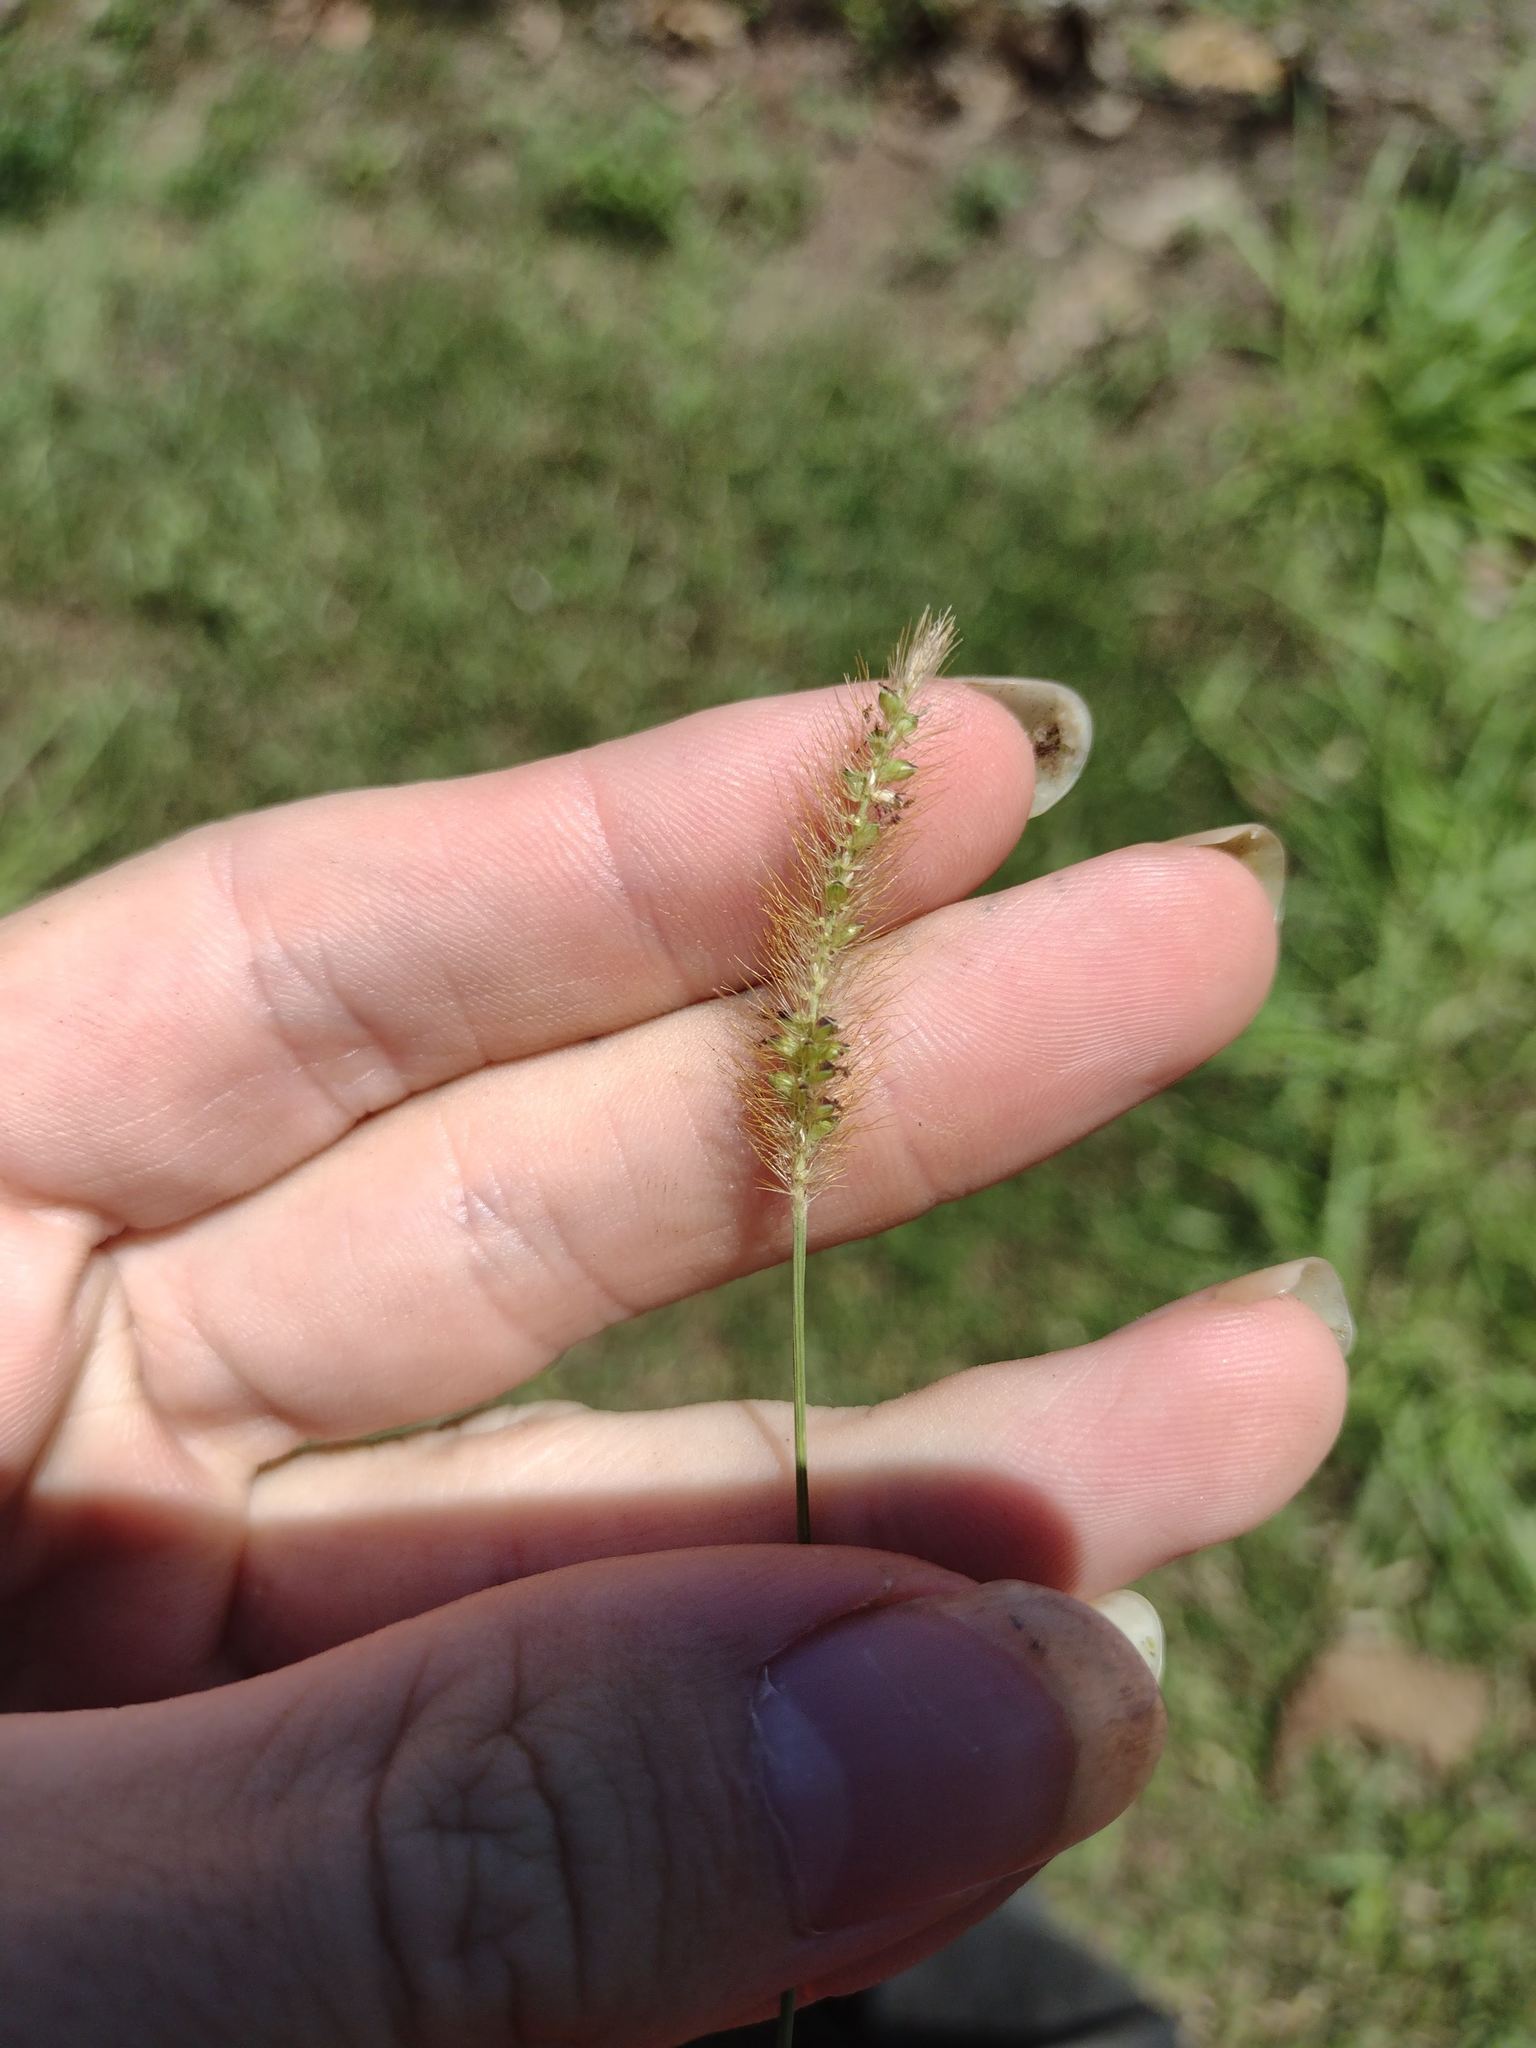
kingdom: Plantae
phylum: Tracheophyta
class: Liliopsida
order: Poales
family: Poaceae
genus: Setaria
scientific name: Setaria parviflora
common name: Knotroot bristle-grass
